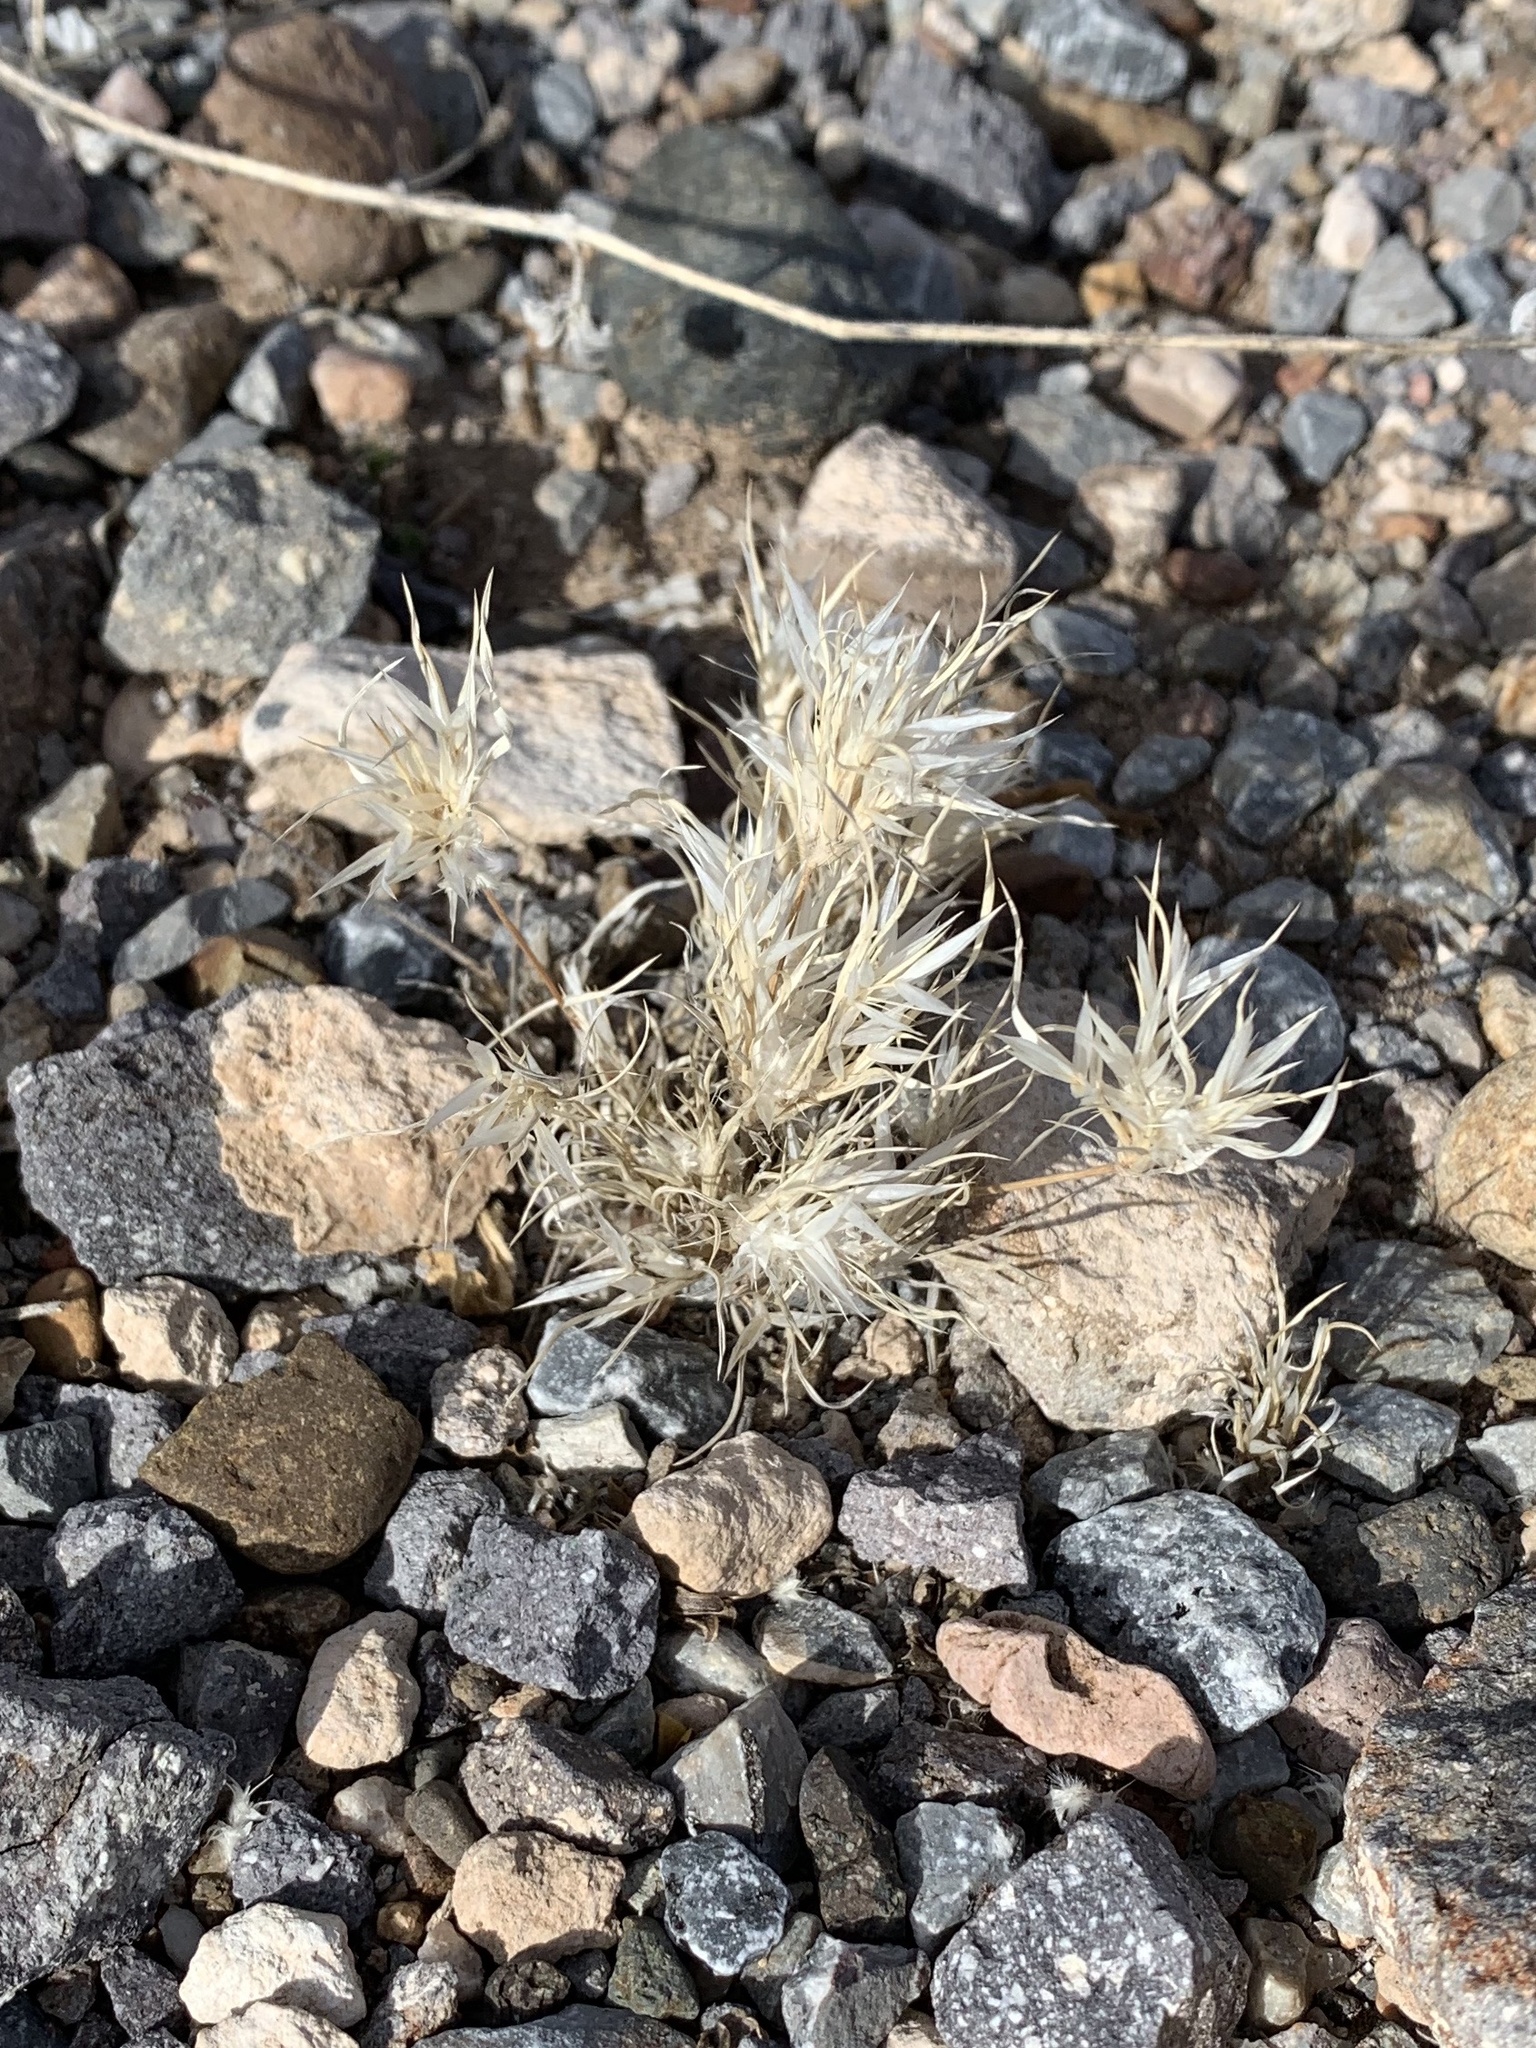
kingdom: Plantae
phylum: Tracheophyta
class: Liliopsida
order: Poales
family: Poaceae
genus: Dasyochloa
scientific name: Dasyochloa pulchella
